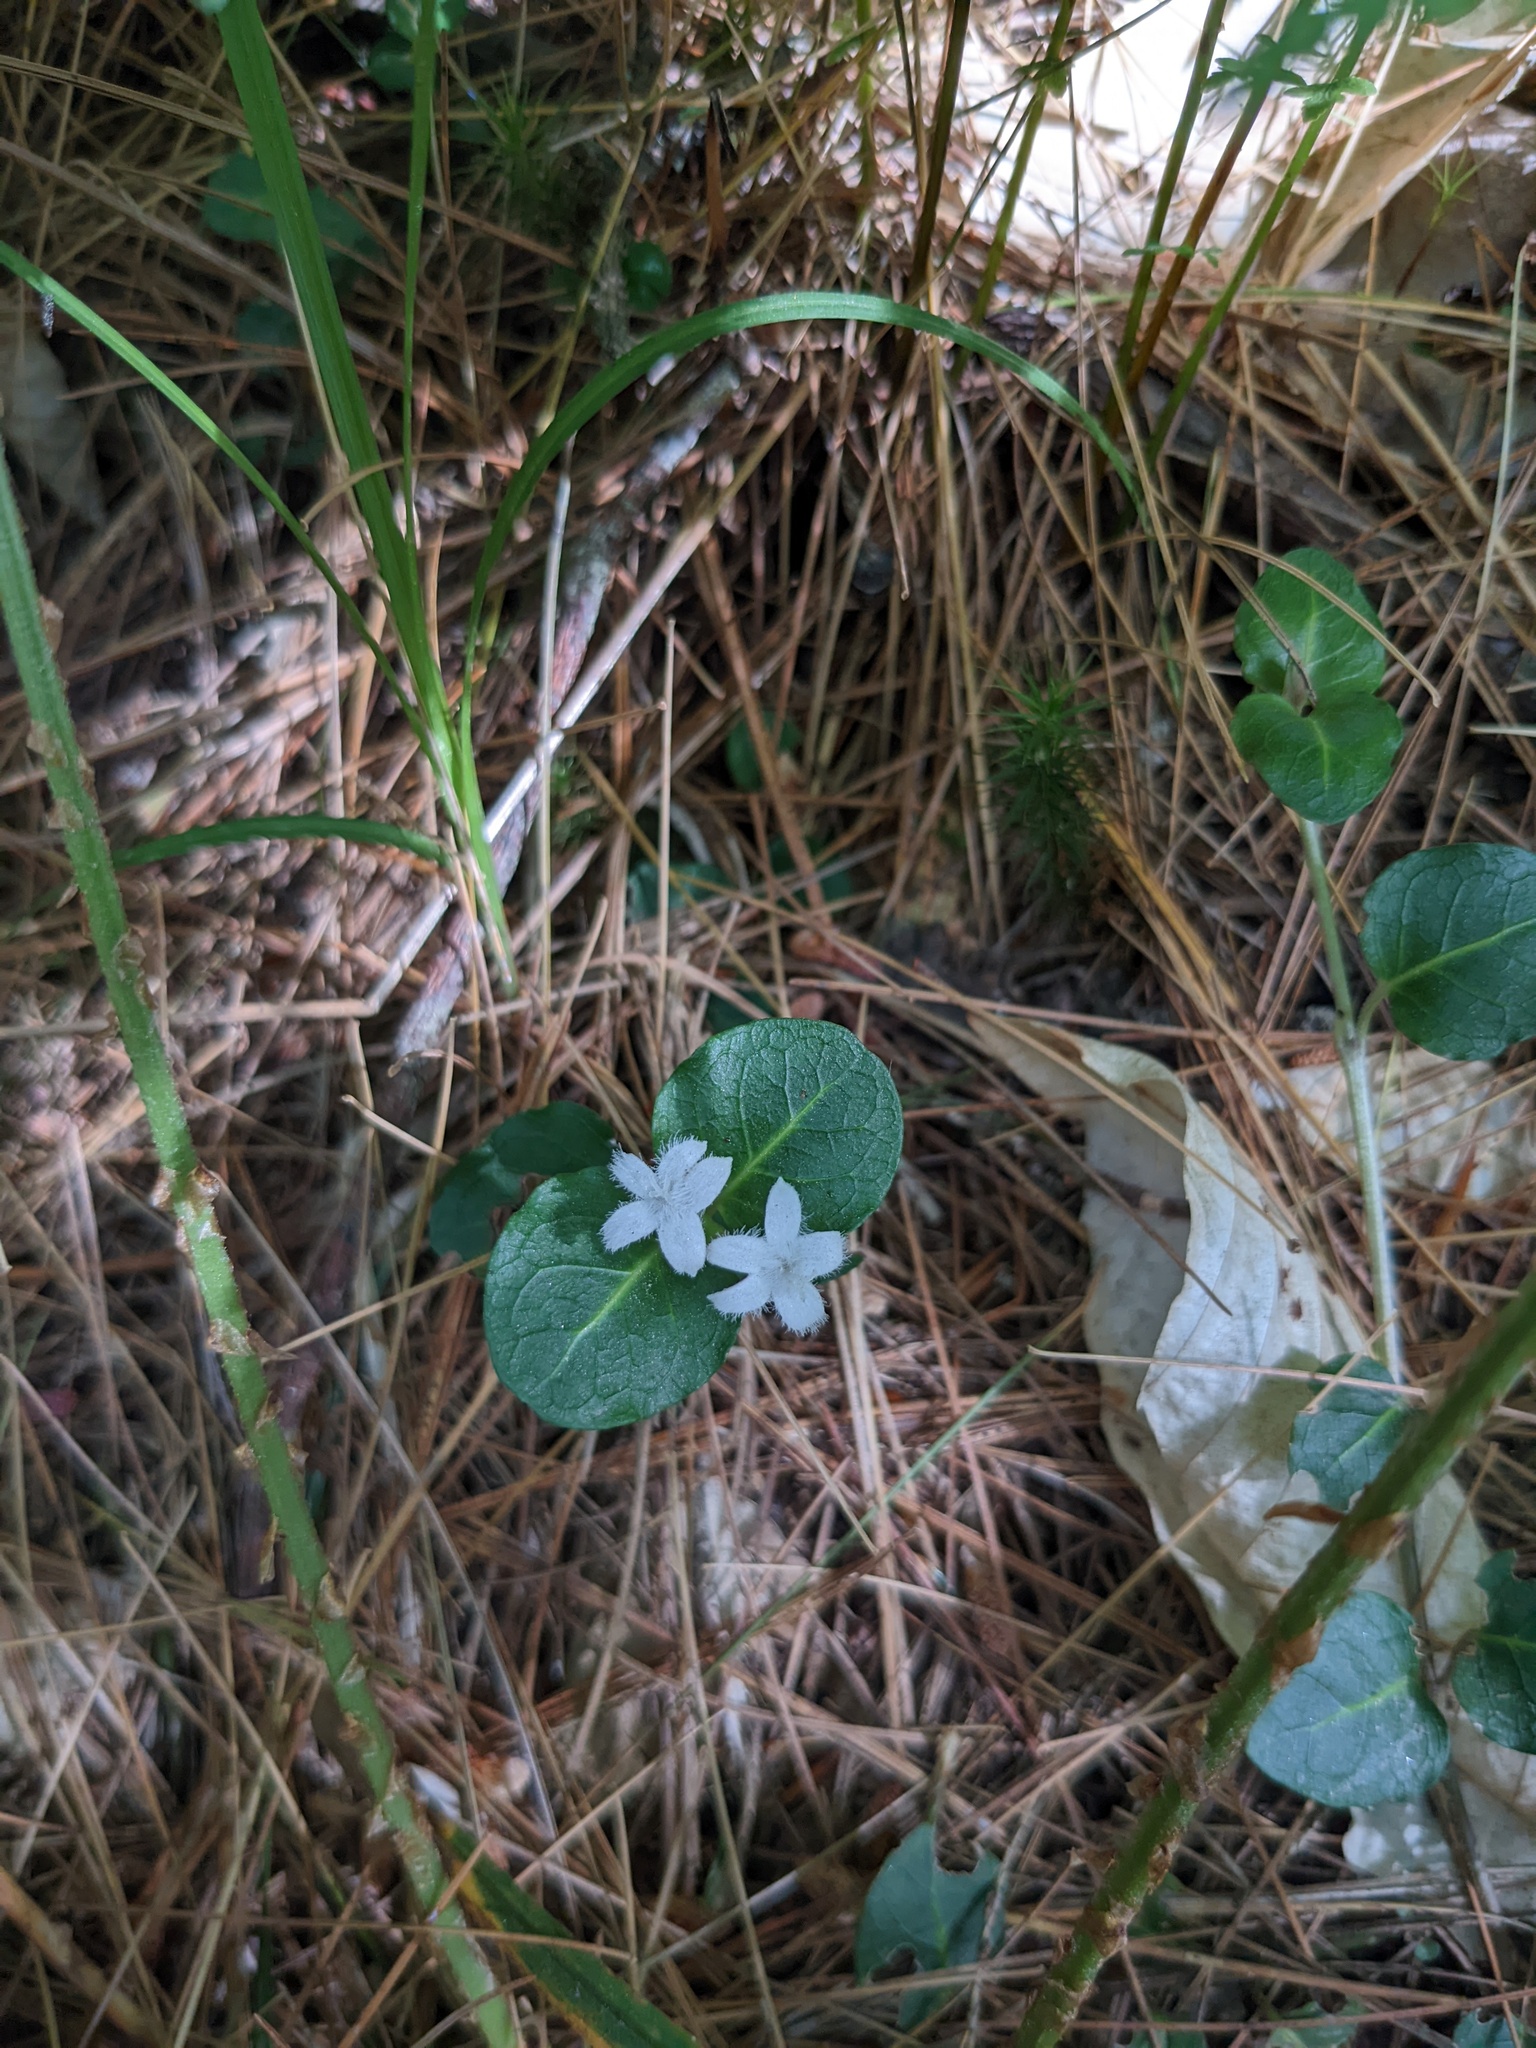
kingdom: Plantae
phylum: Tracheophyta
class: Magnoliopsida
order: Gentianales
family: Rubiaceae
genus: Mitchella
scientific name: Mitchella repens
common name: Partridge-berry
